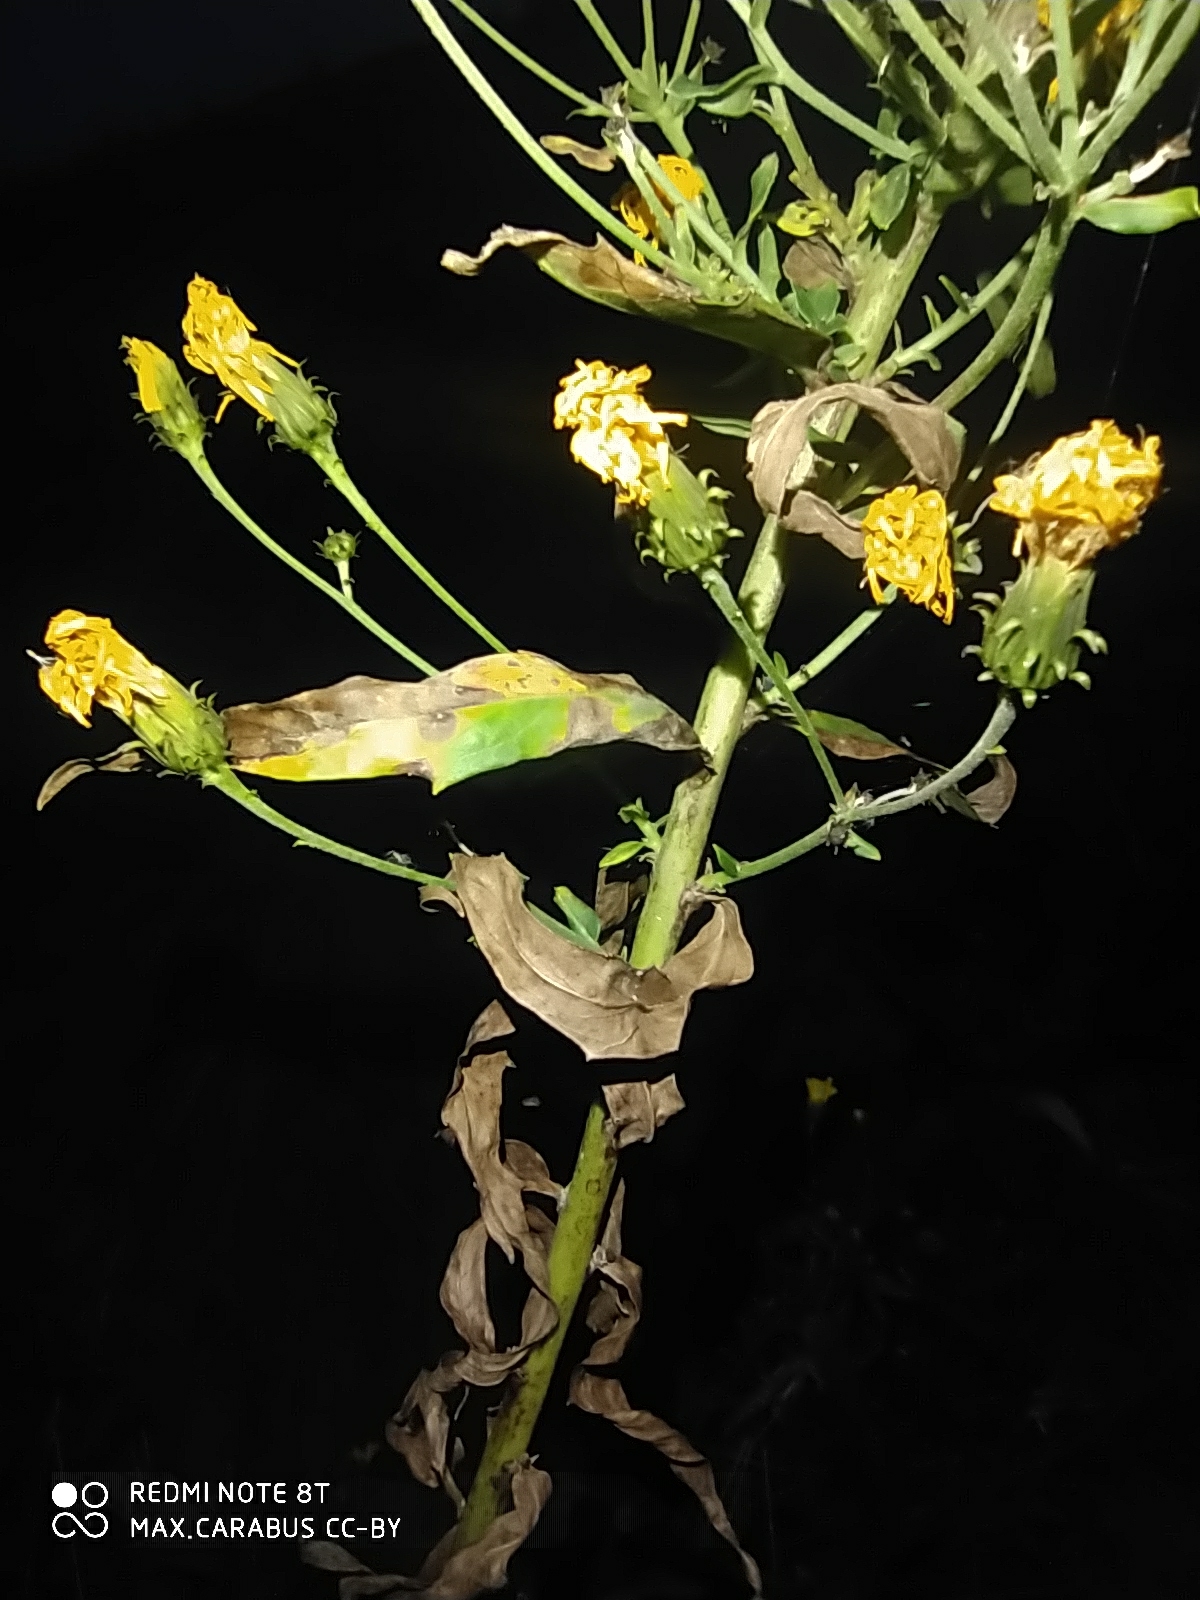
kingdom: Plantae
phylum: Tracheophyta
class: Magnoliopsida
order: Asterales
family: Asteraceae
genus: Hieracium
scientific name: Hieracium umbellatum
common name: Northern hawkweed
